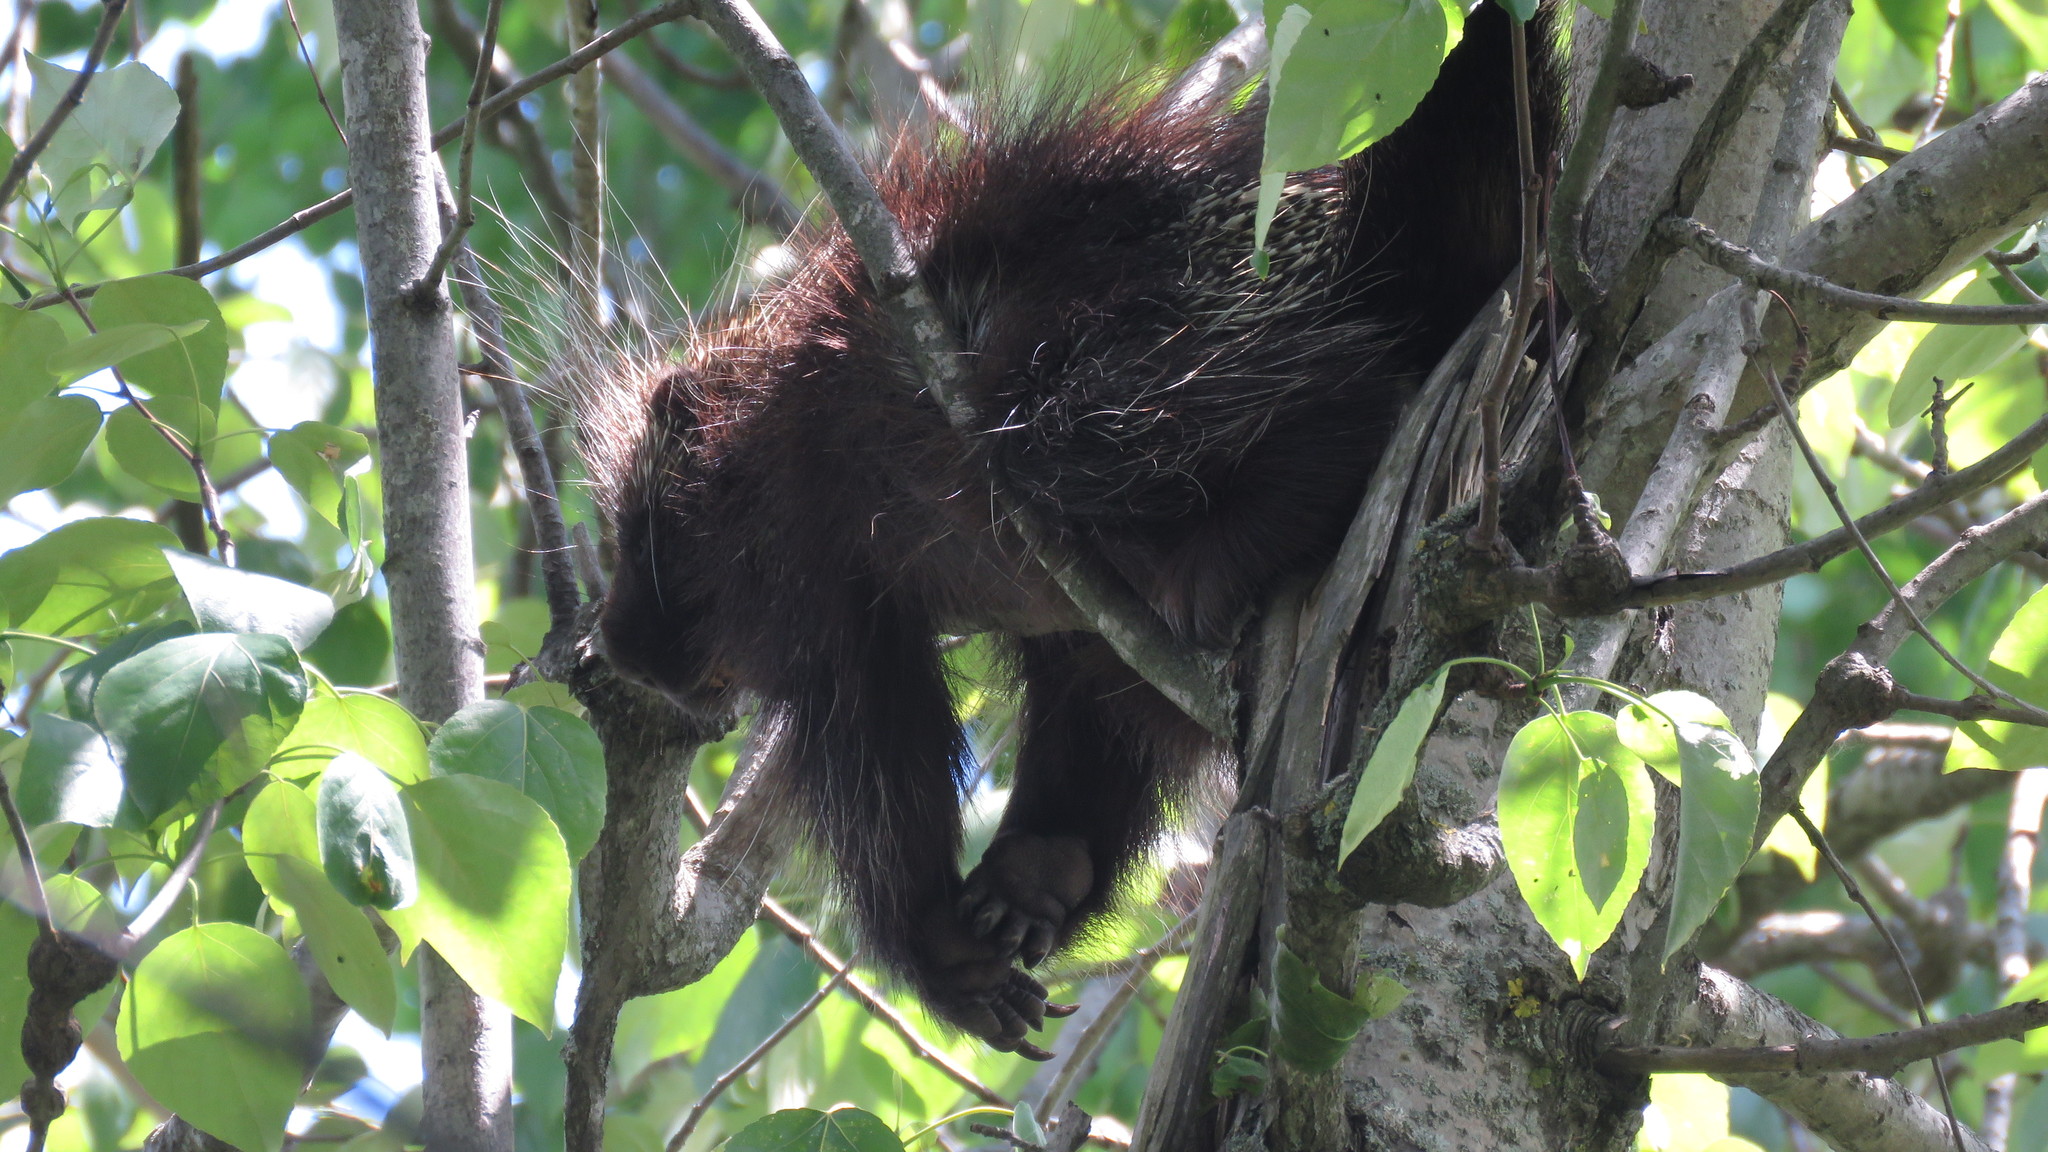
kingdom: Animalia
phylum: Chordata
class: Mammalia
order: Rodentia
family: Erethizontidae
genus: Erethizon
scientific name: Erethizon dorsatus
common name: North american porcupine
